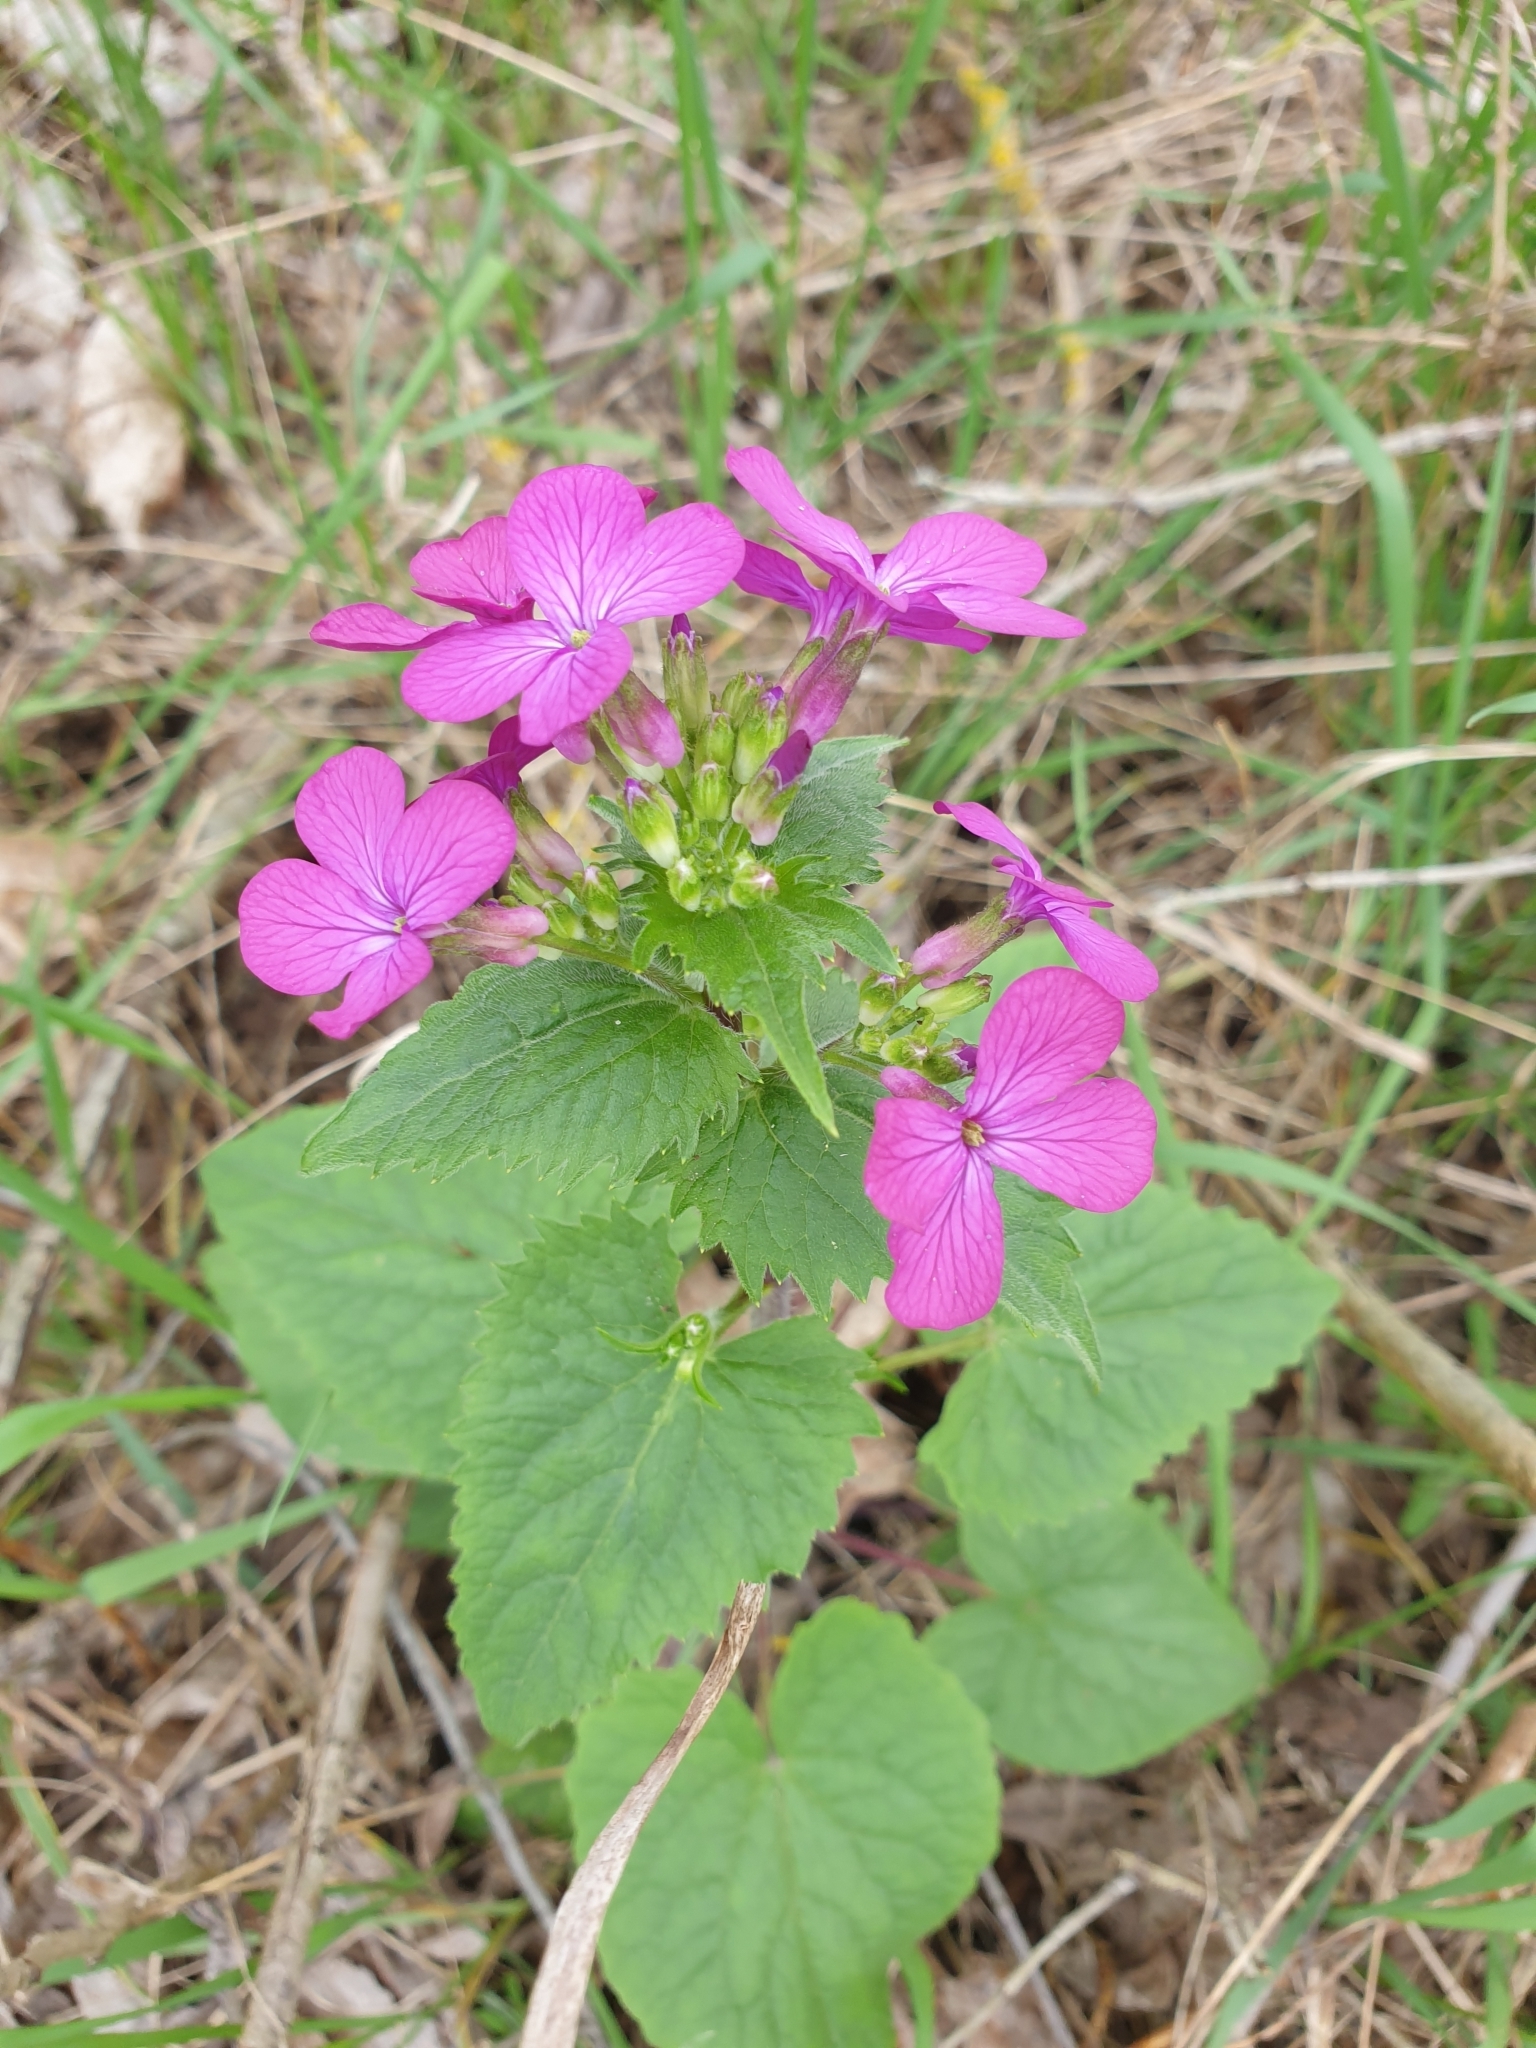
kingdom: Plantae
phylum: Tracheophyta
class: Magnoliopsida
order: Brassicales
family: Brassicaceae
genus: Lunaria
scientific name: Lunaria annua
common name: Honesty
